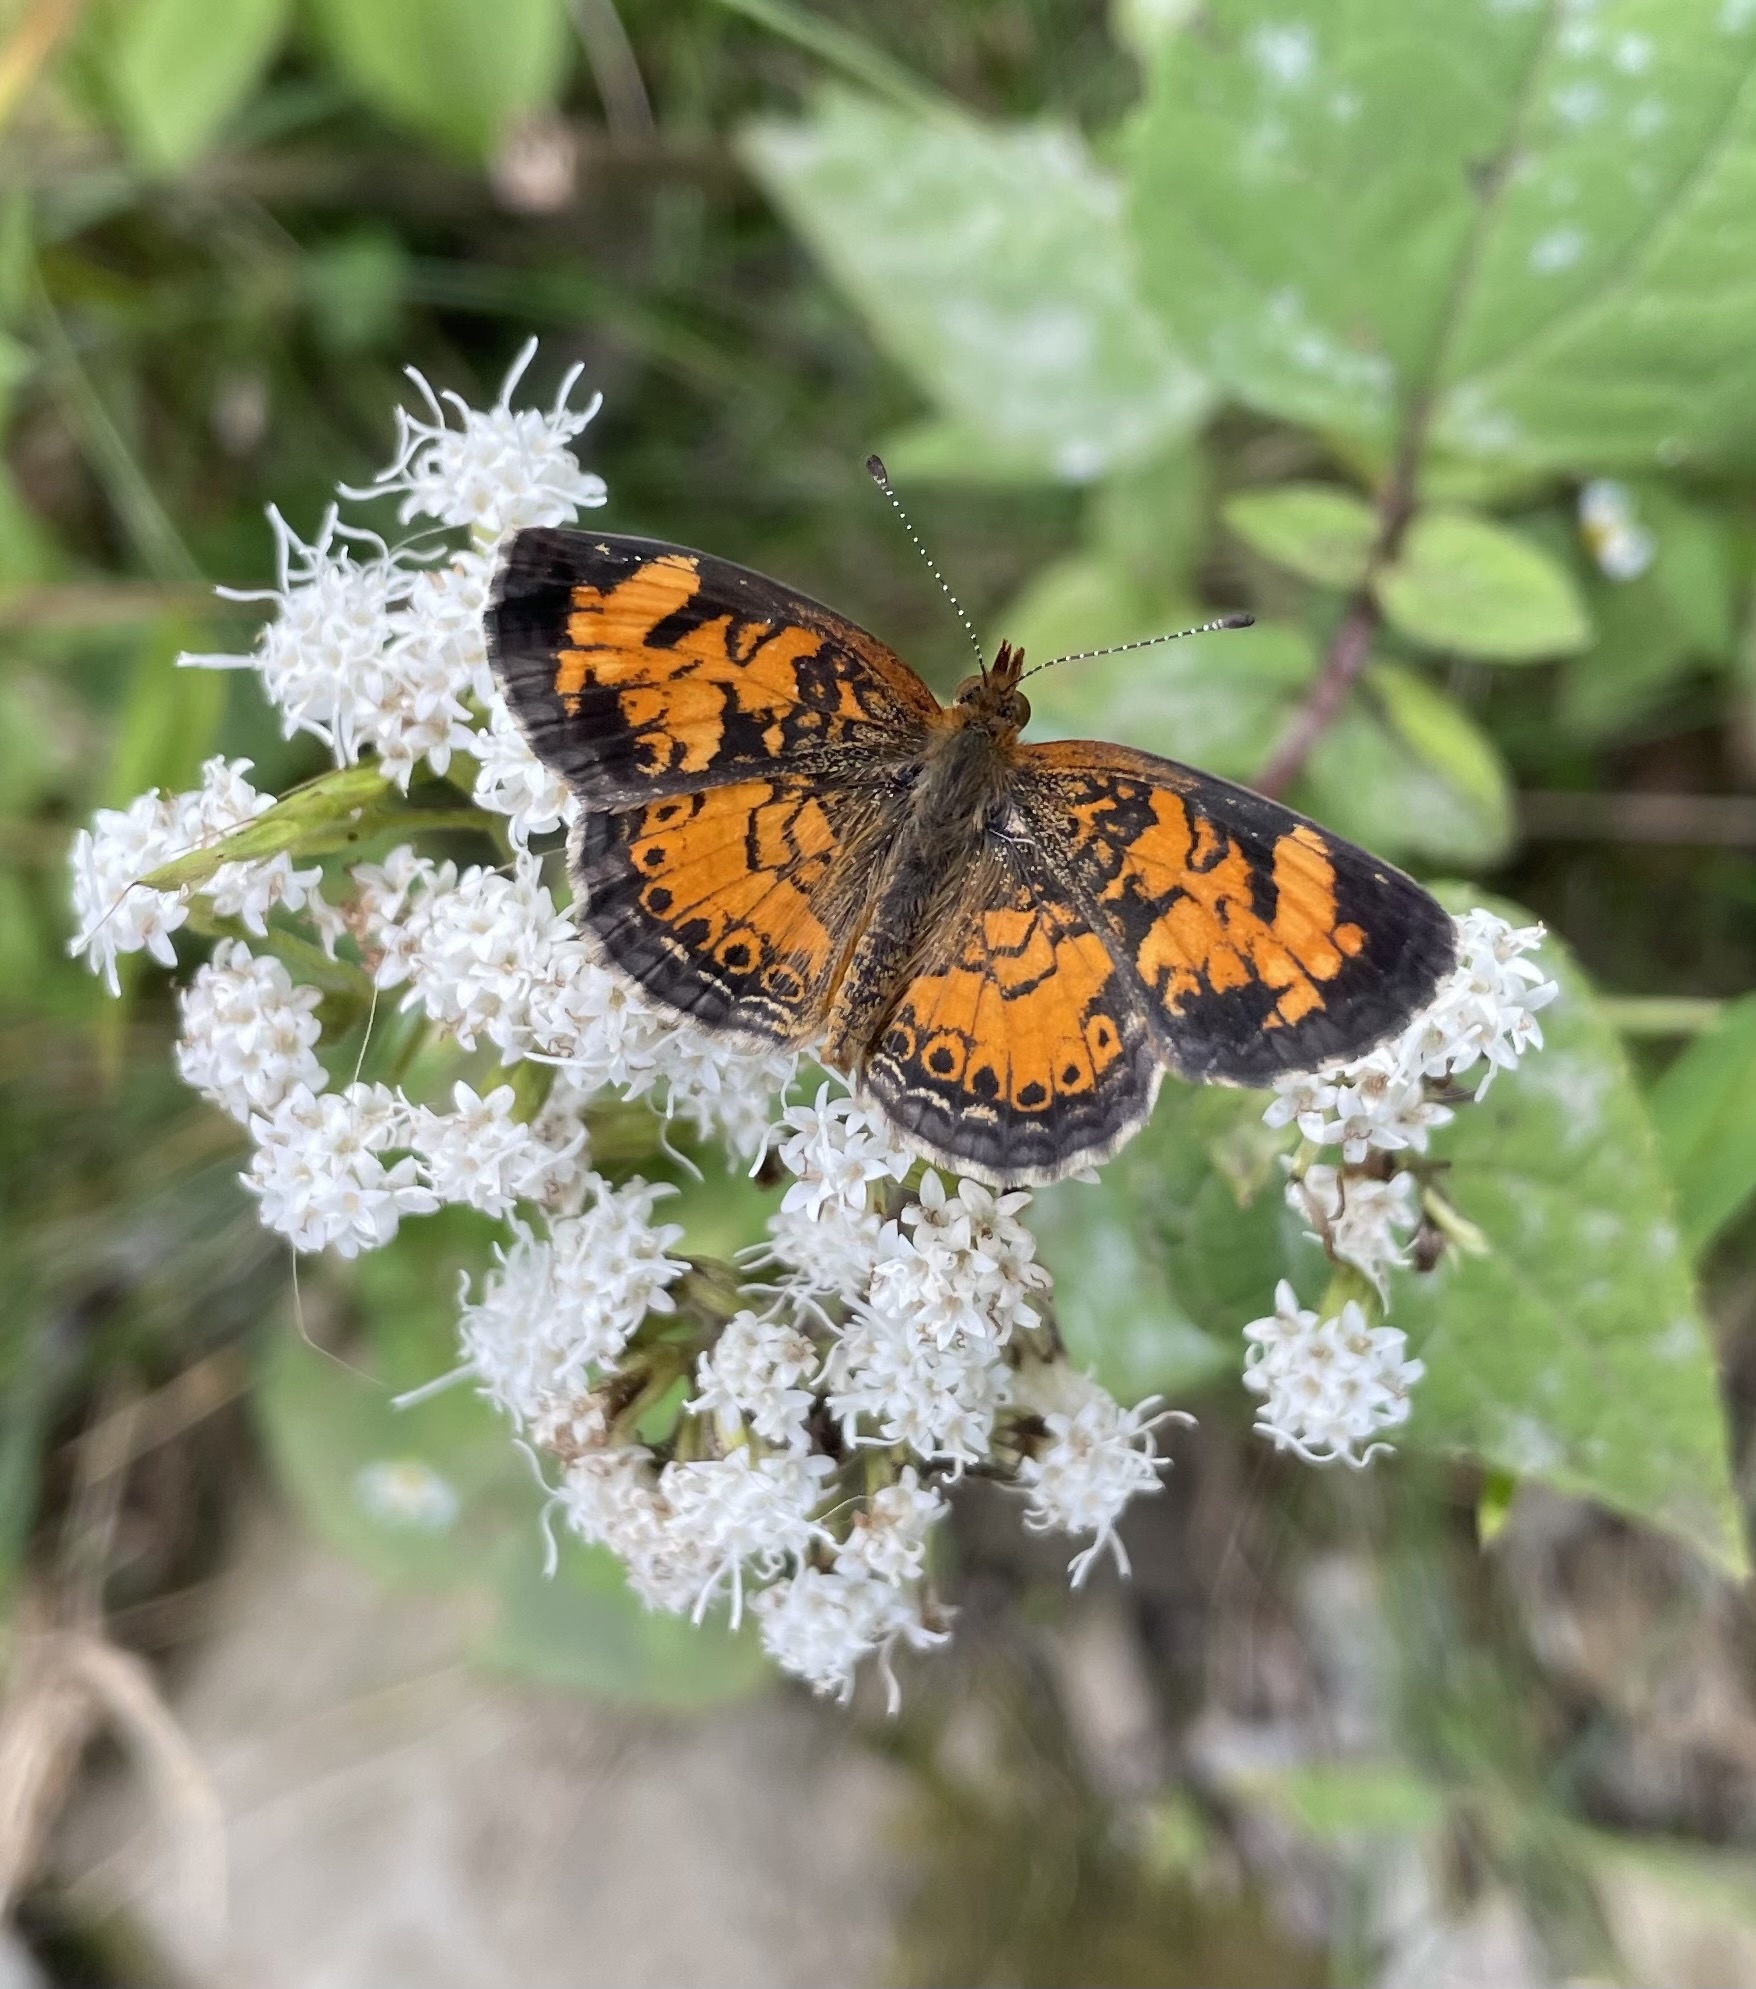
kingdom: Animalia
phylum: Arthropoda
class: Insecta
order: Lepidoptera
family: Nymphalidae
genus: Phyciodes
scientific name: Phyciodes tharos
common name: Pearl crescent
